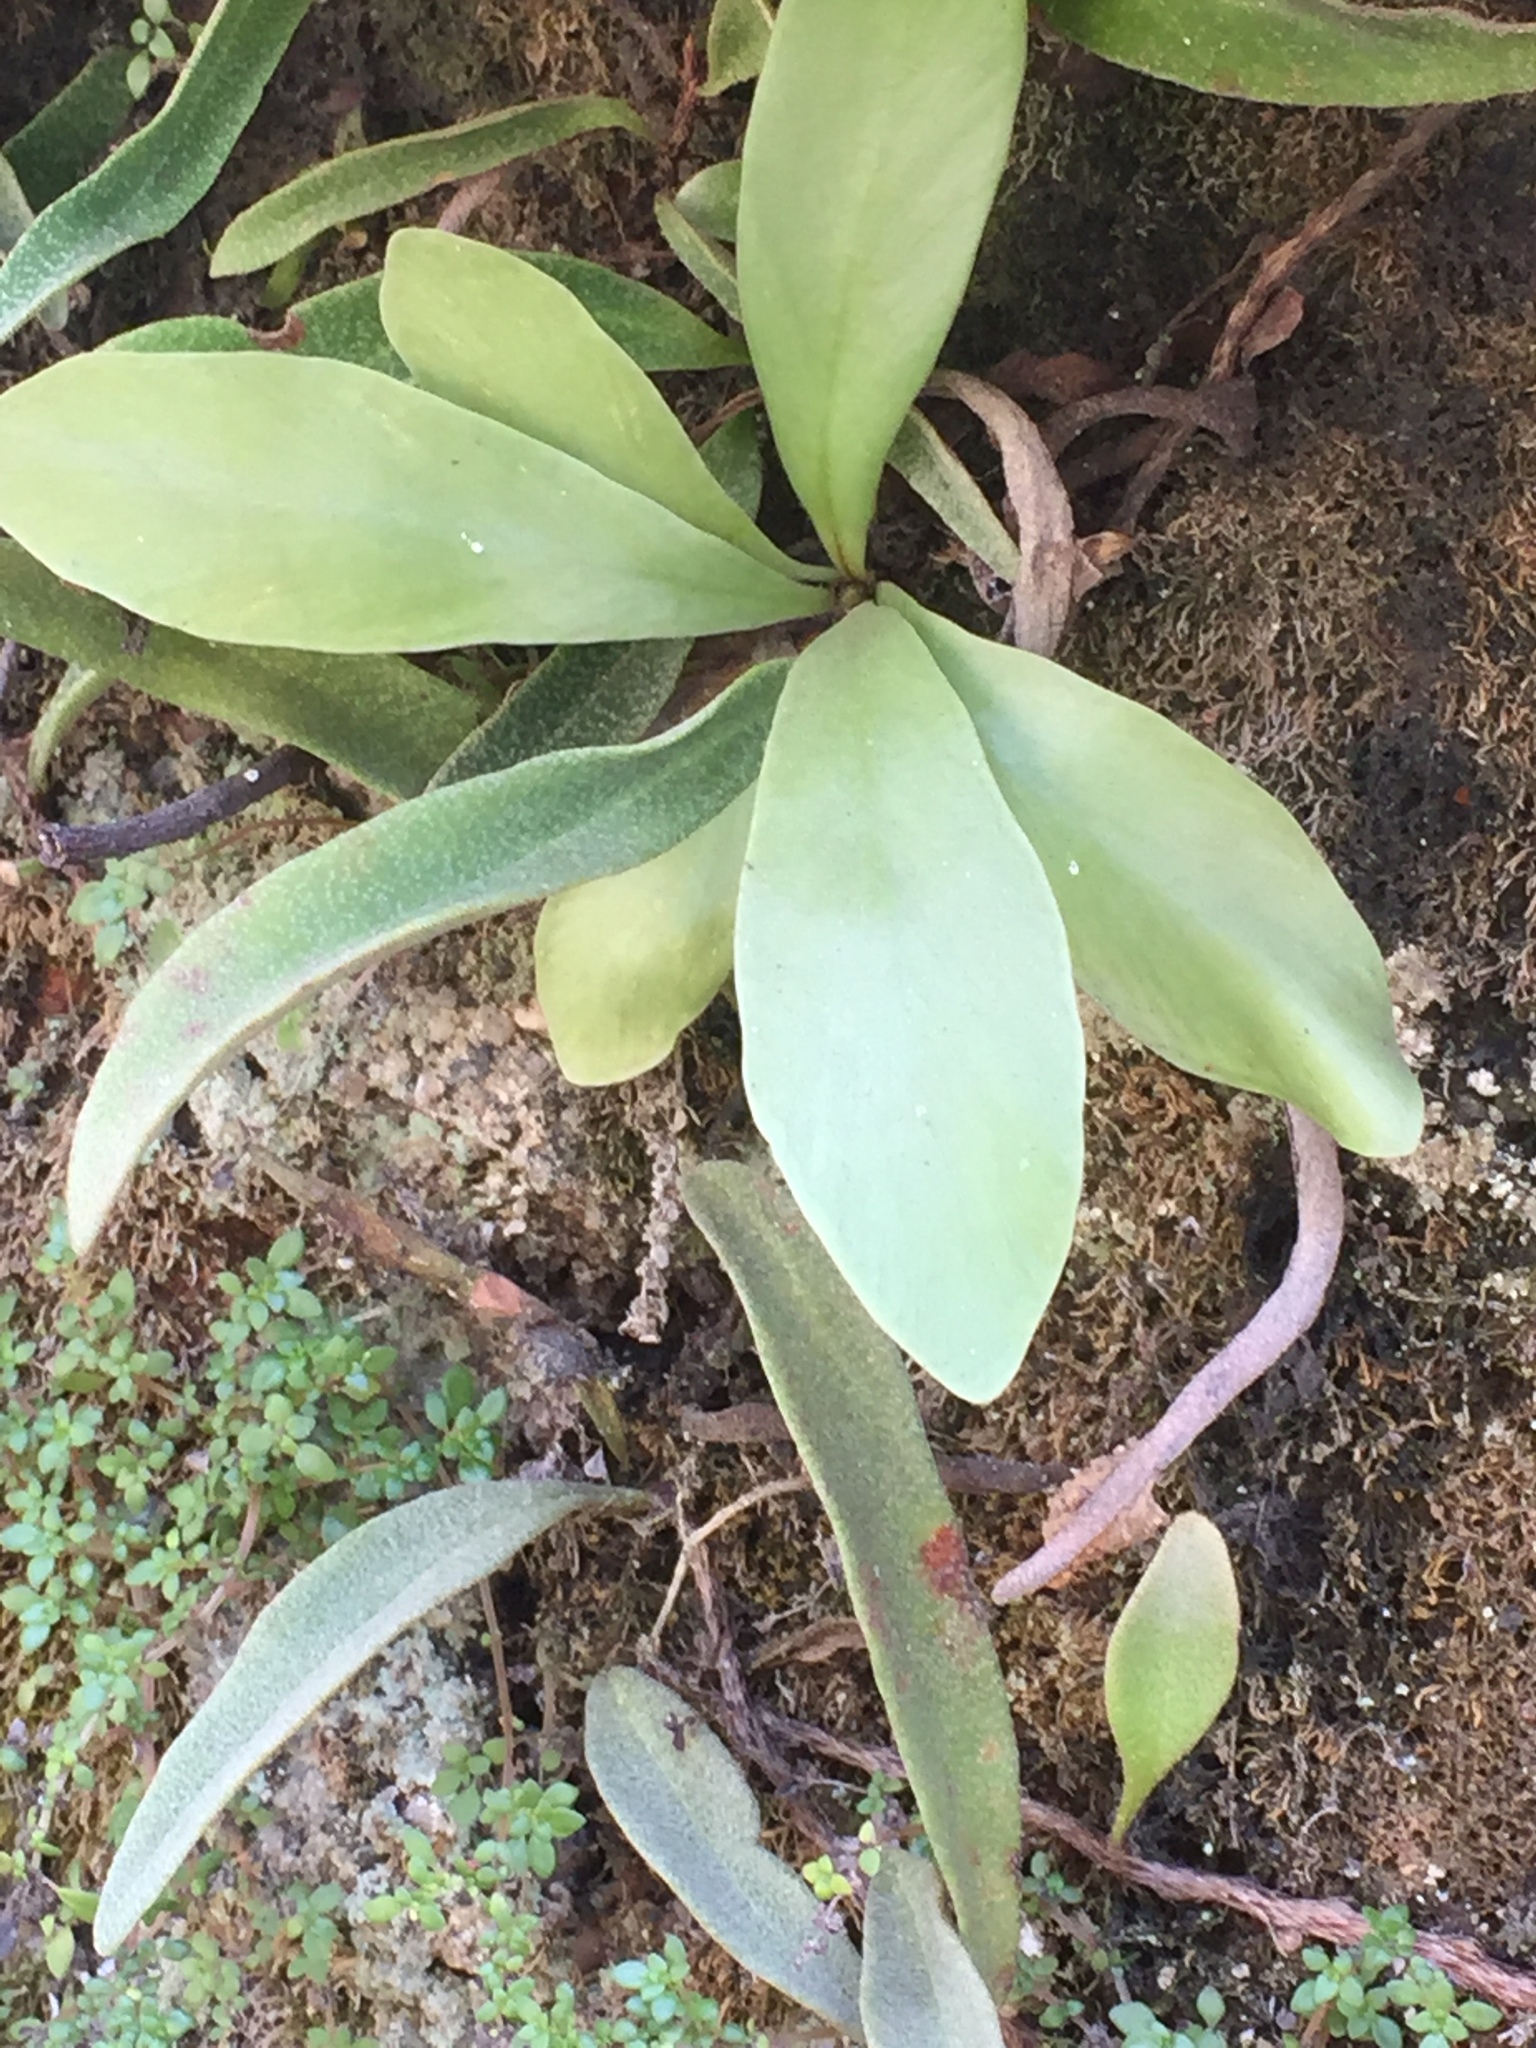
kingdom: Plantae
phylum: Tracheophyta
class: Magnoliopsida
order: Rosales
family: Urticaceae
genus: Pilea
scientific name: Pilea microphylla
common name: Artillery-plant
